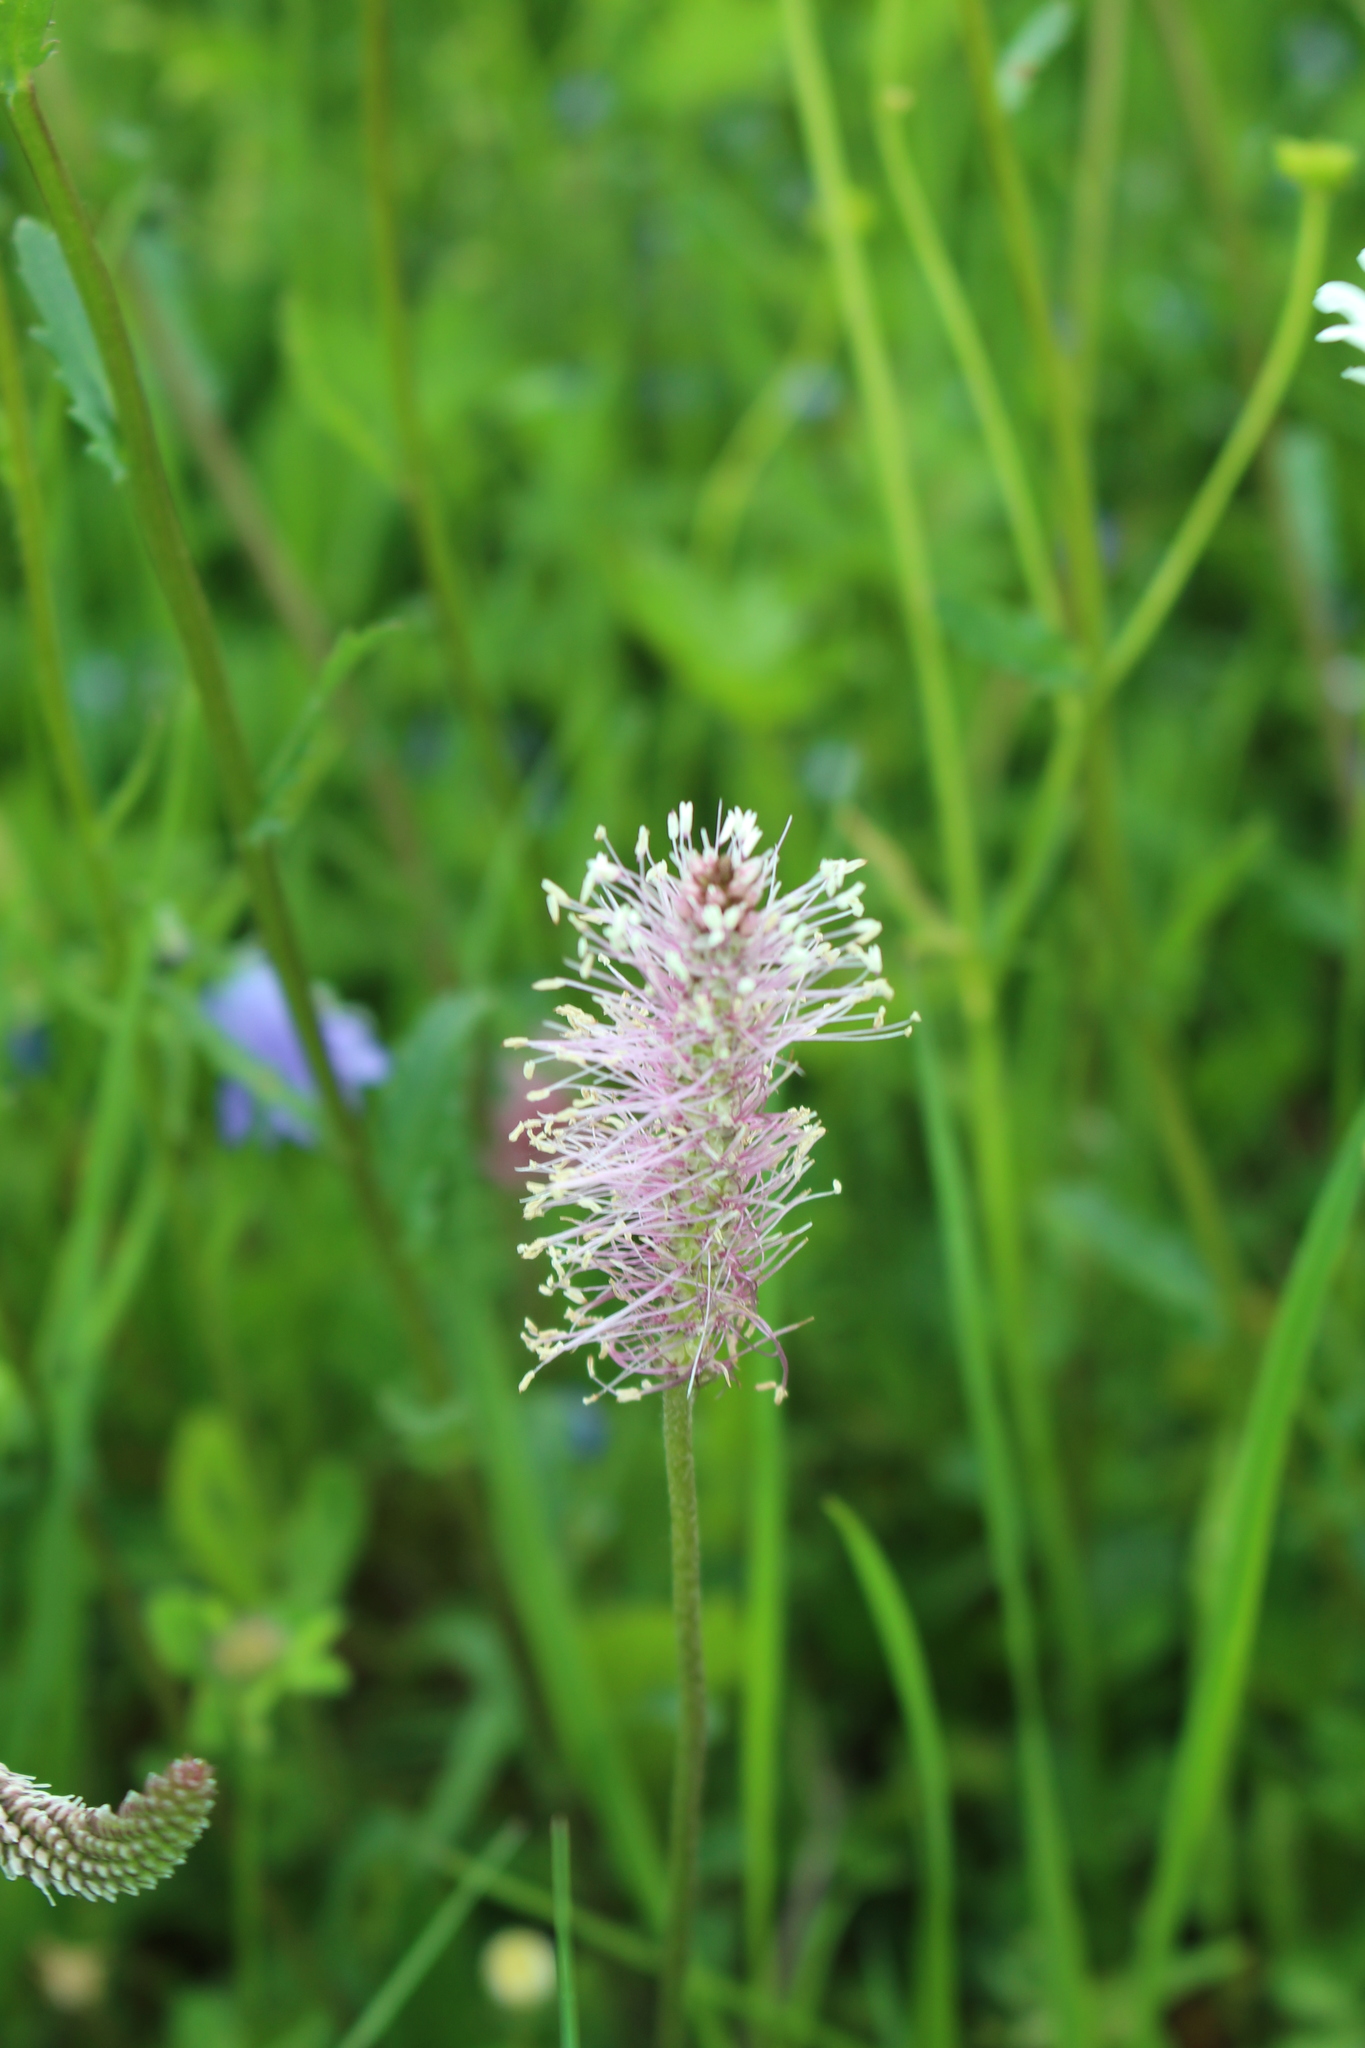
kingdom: Plantae
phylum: Tracheophyta
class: Magnoliopsida
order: Lamiales
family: Plantaginaceae
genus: Plantago
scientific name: Plantago media
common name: Hoary plantain
